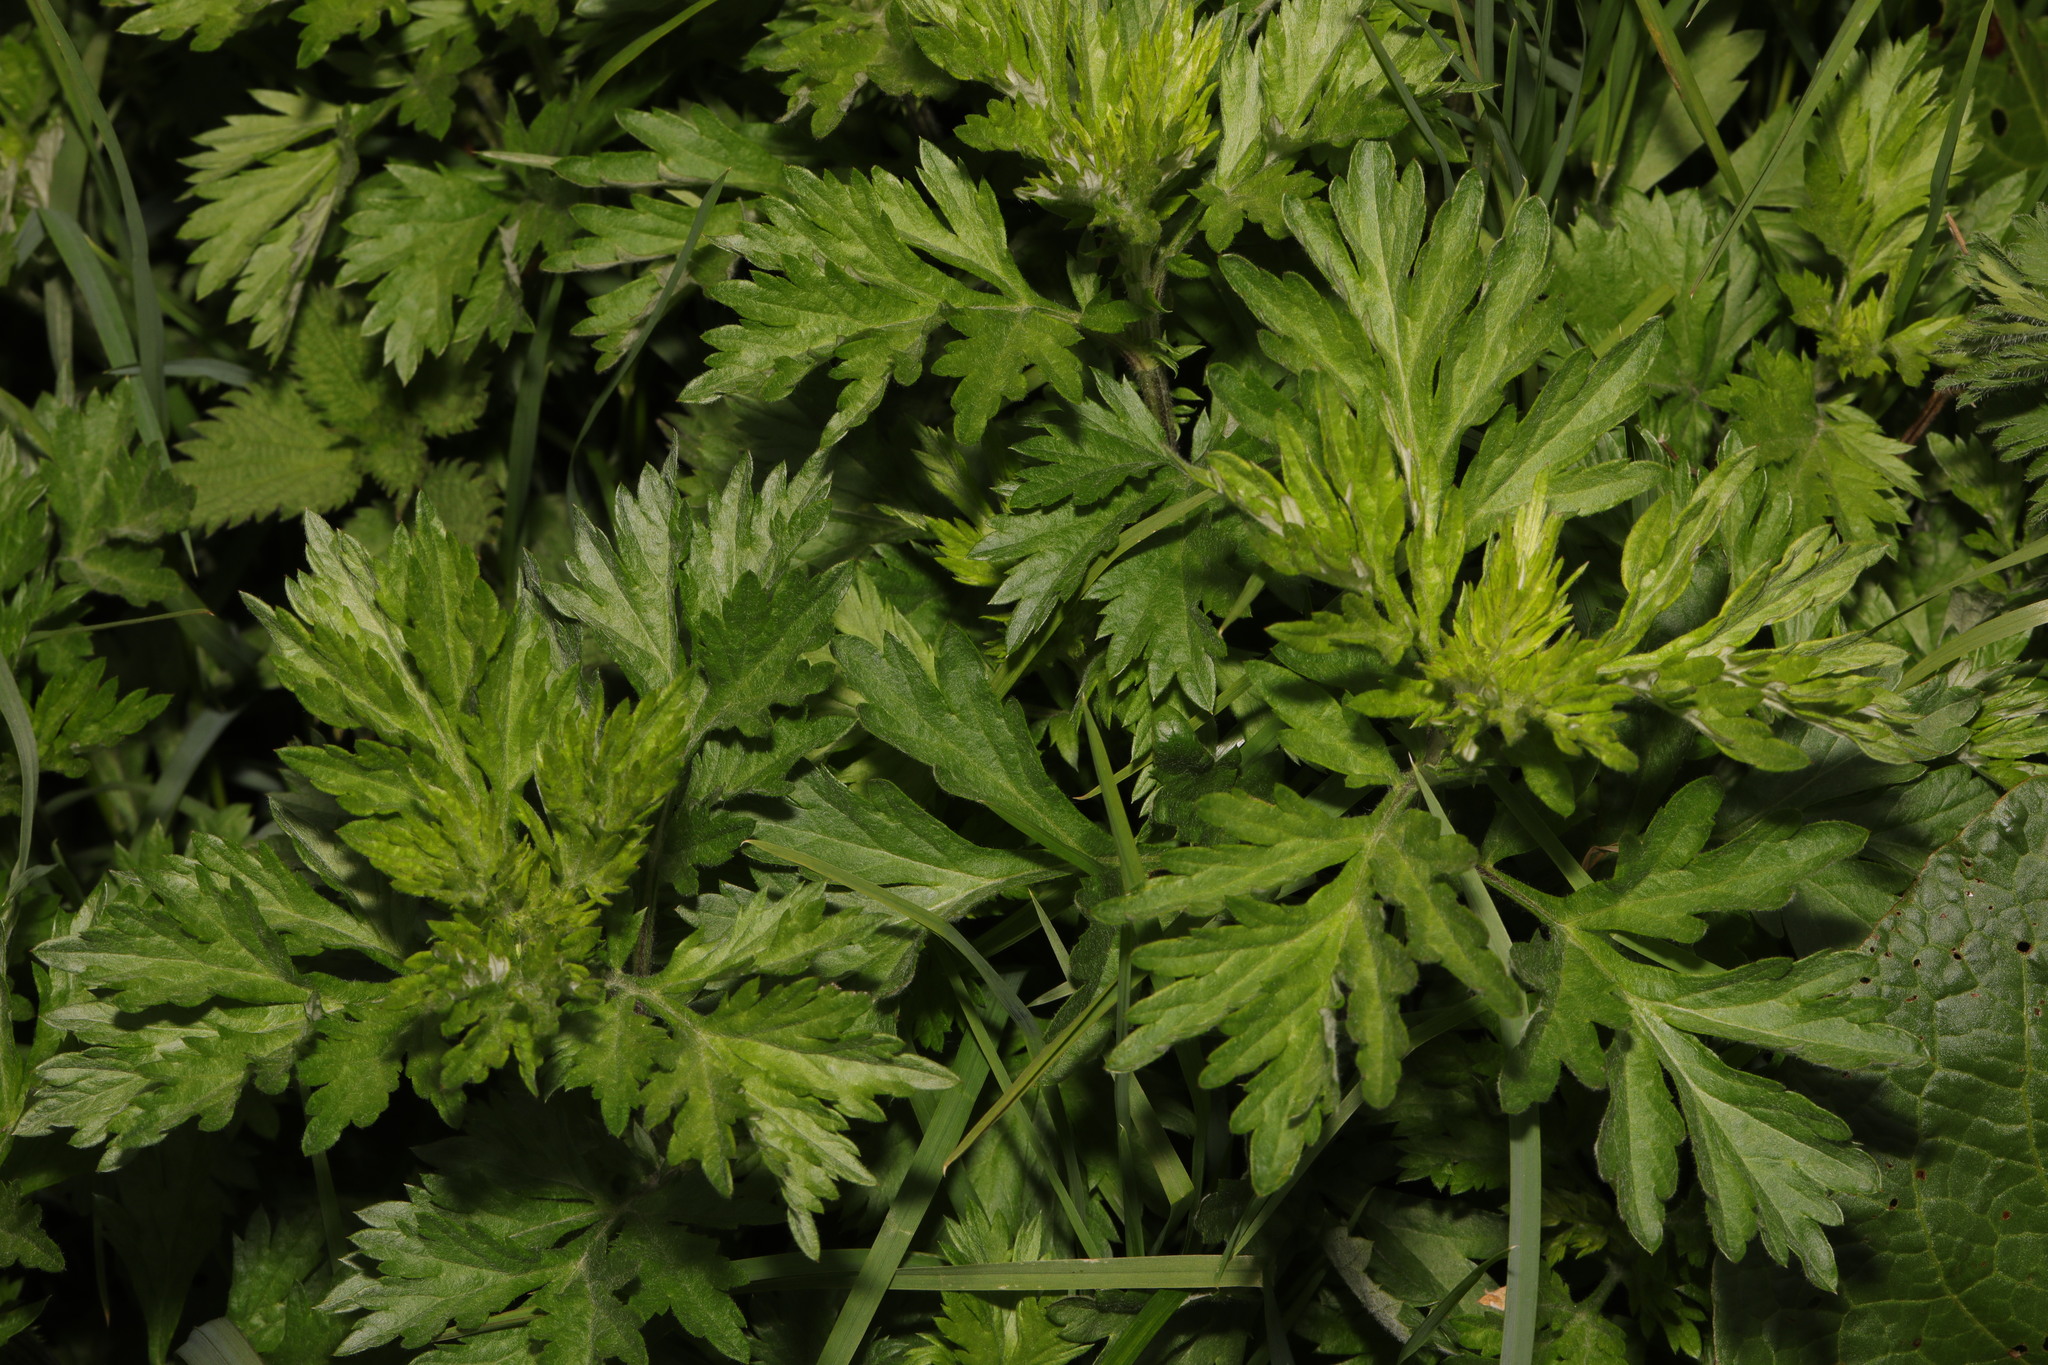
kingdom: Plantae
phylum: Tracheophyta
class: Magnoliopsida
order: Asterales
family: Asteraceae
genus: Artemisia
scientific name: Artemisia vulgaris
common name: Mugwort
